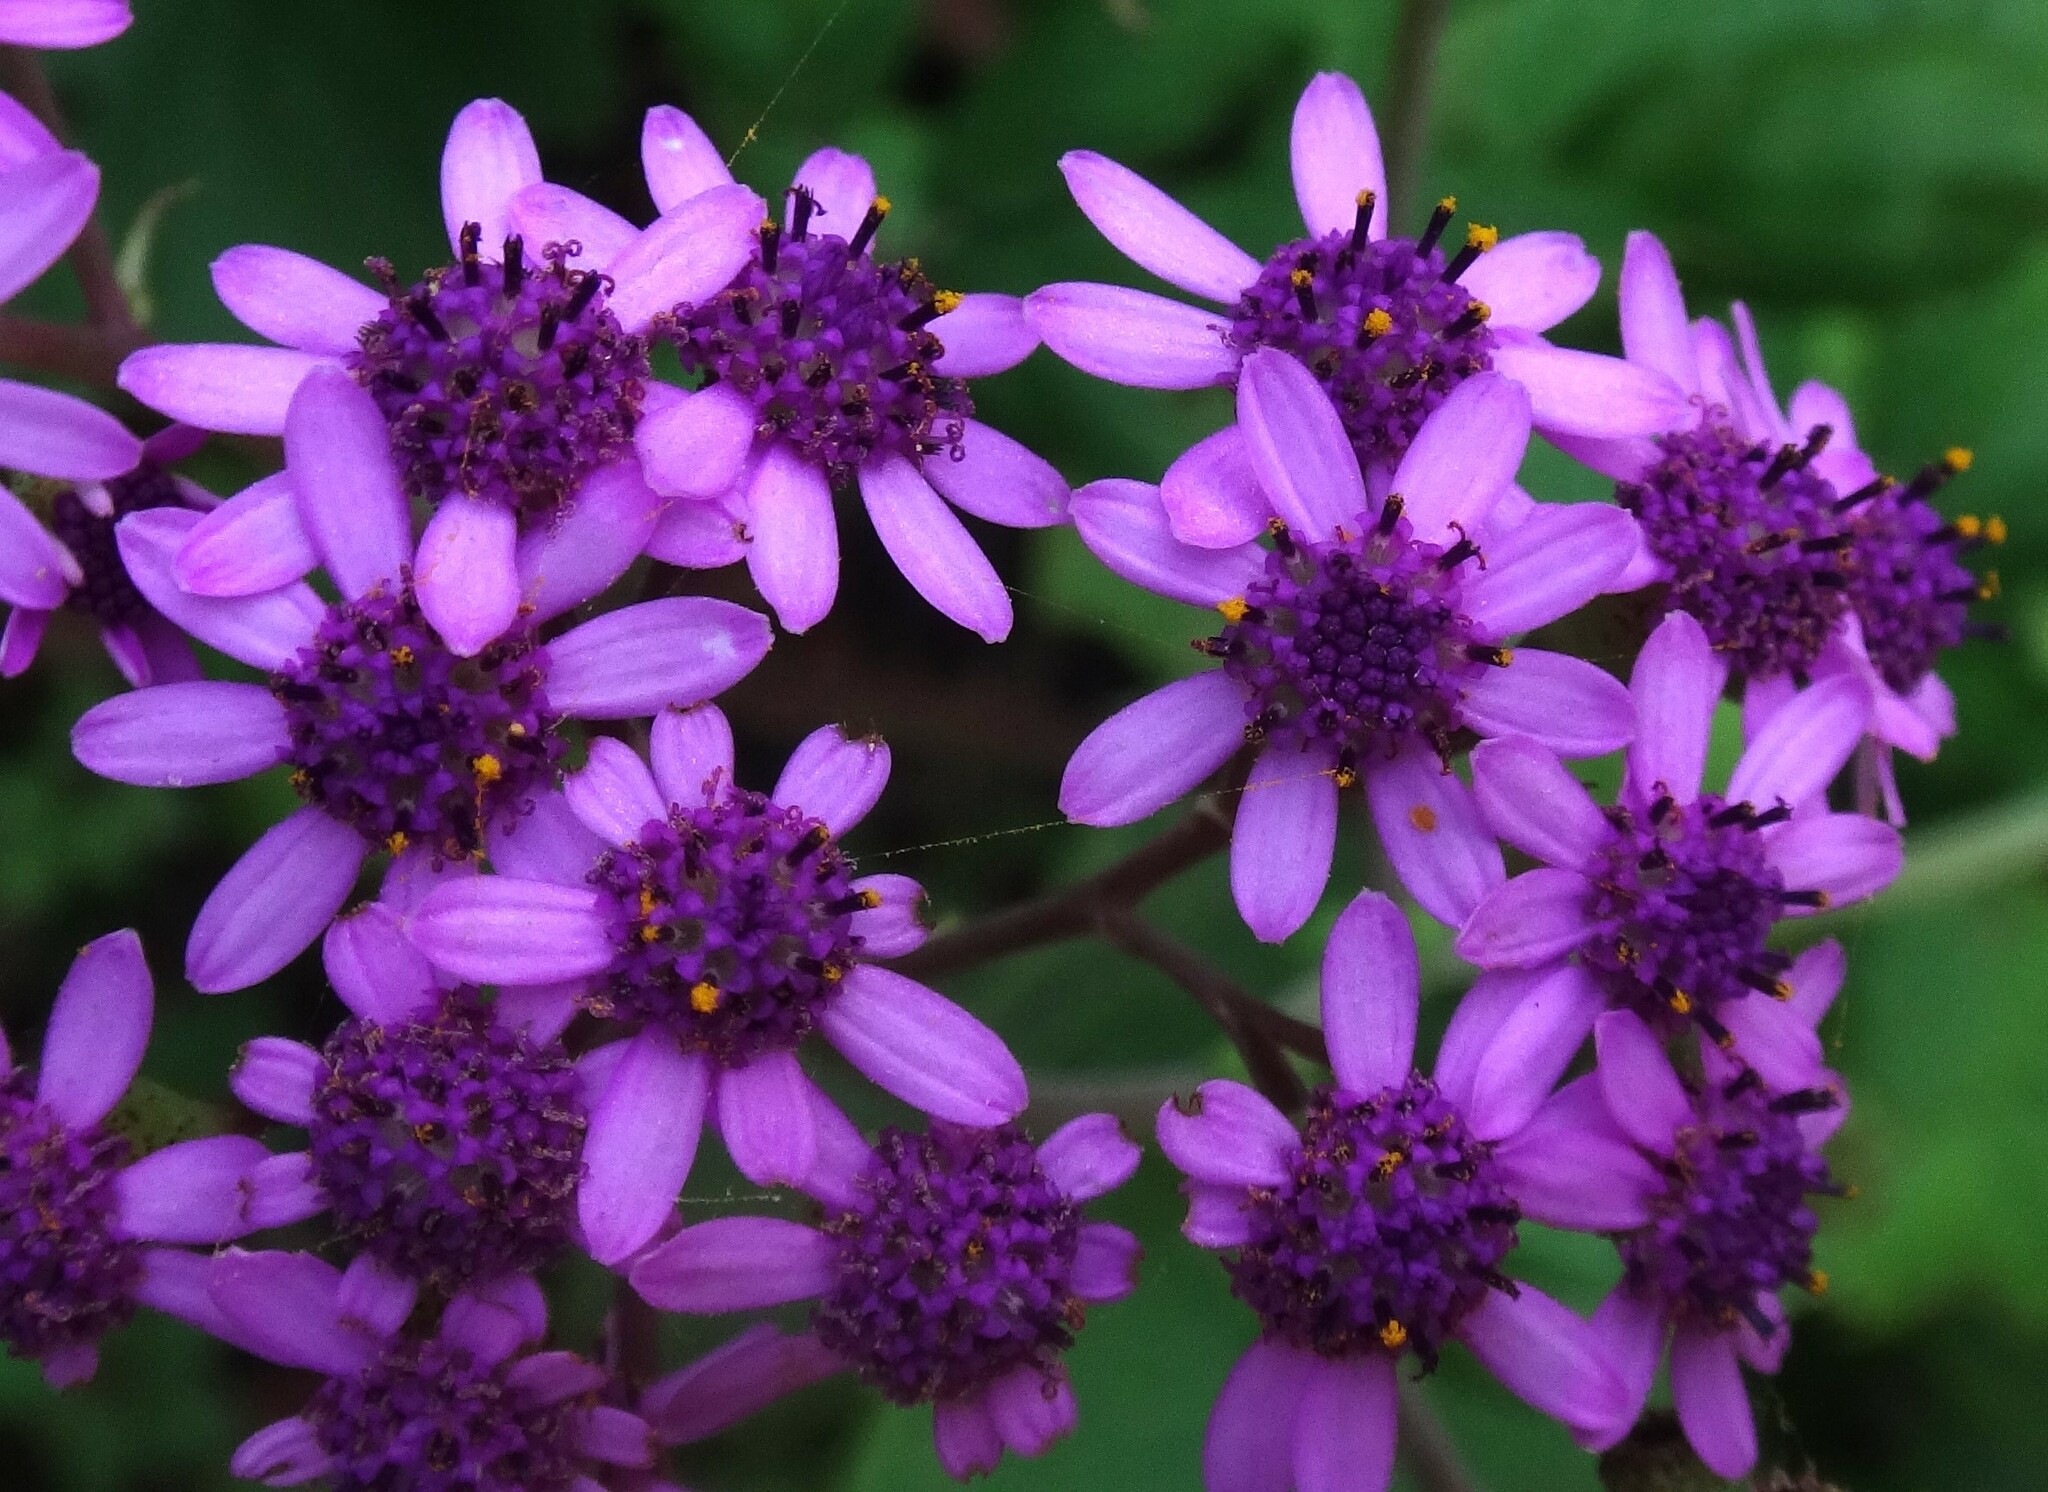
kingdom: Plantae
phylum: Tracheophyta
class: Magnoliopsida
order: Asterales
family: Asteraceae
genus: Pericallis
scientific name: Pericallis papyracea
